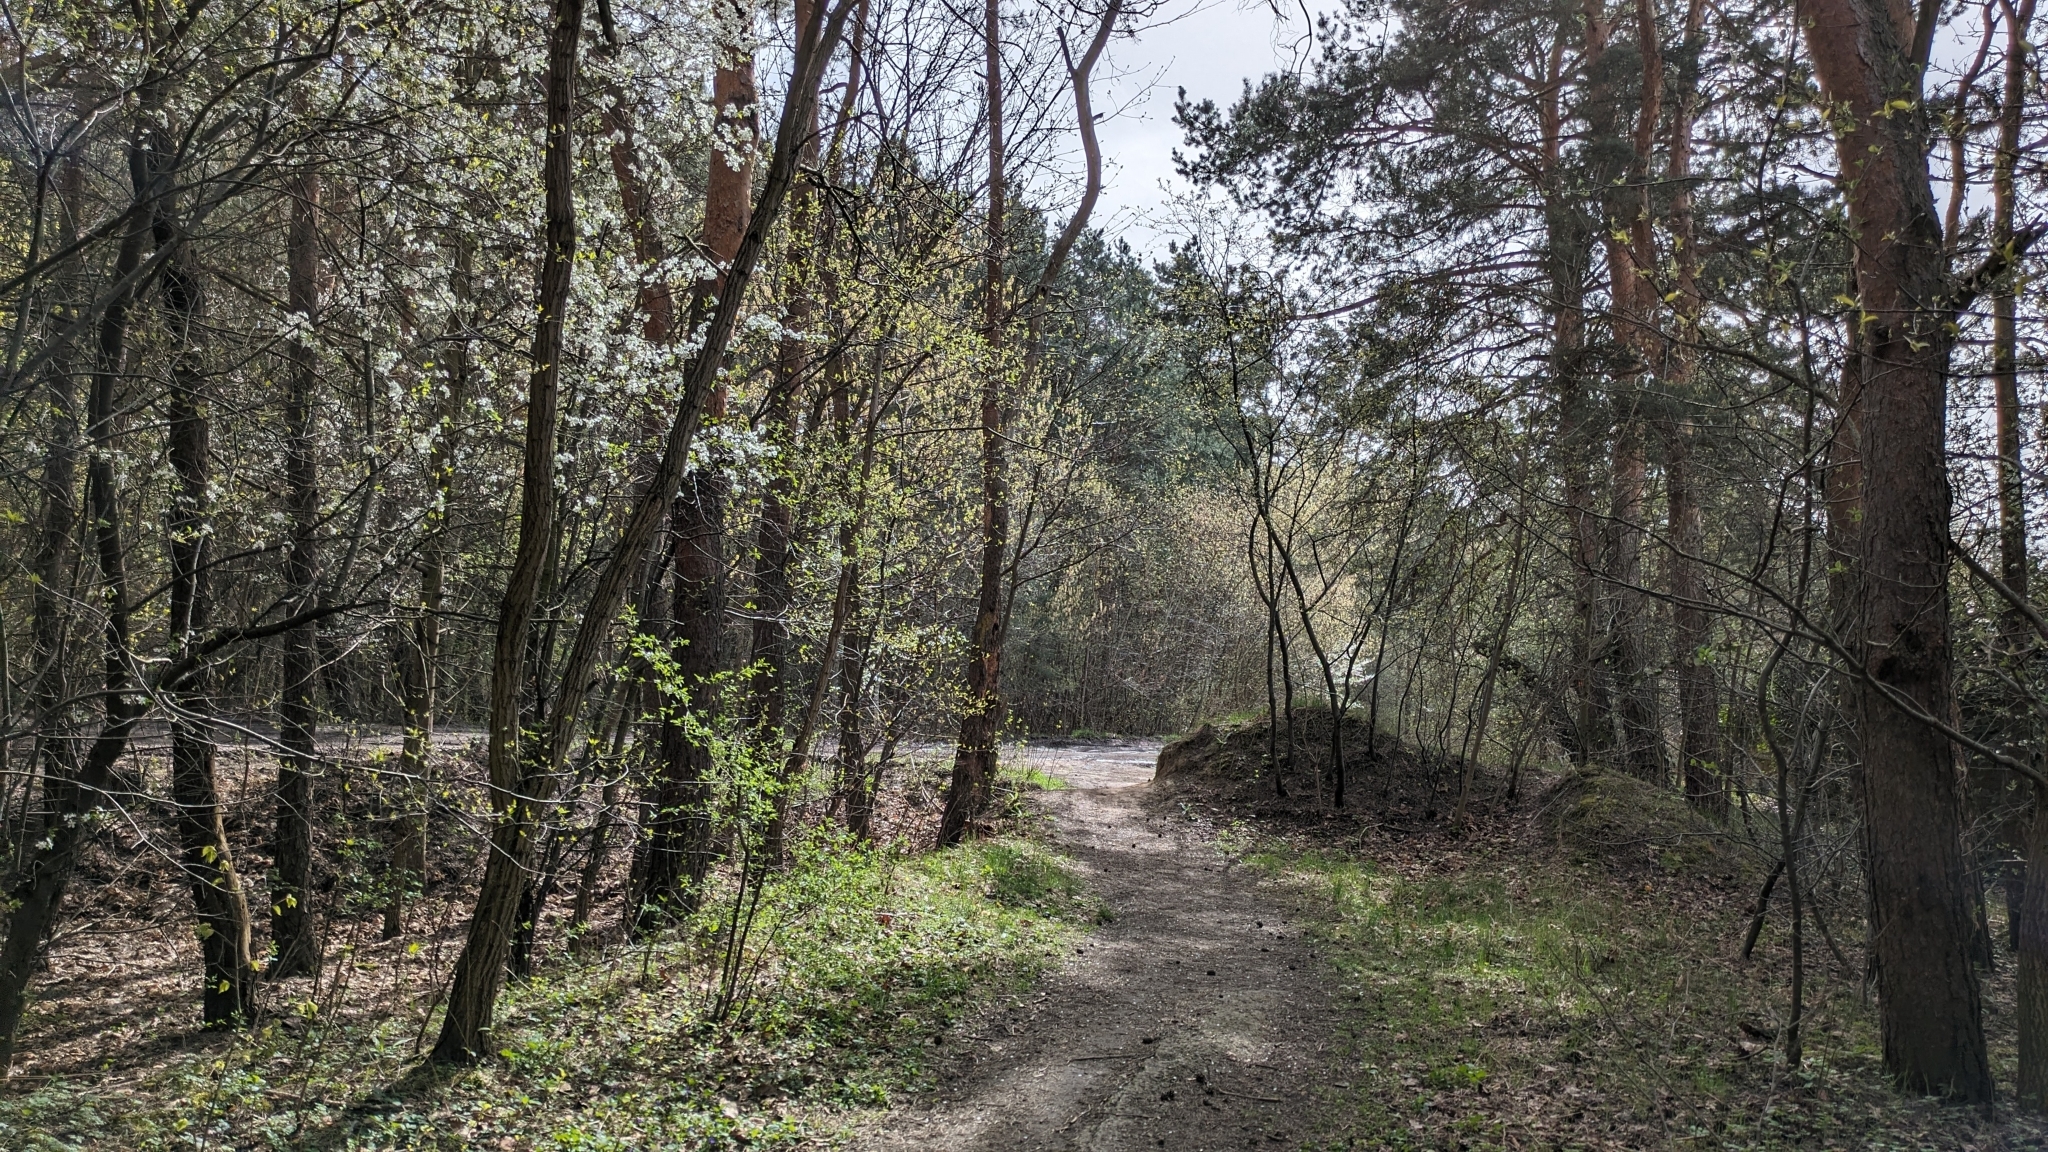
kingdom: Animalia
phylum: Chordata
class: Aves
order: Passeriformes
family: Muscicapidae
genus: Erithacus
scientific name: Erithacus rubecula
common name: European robin
